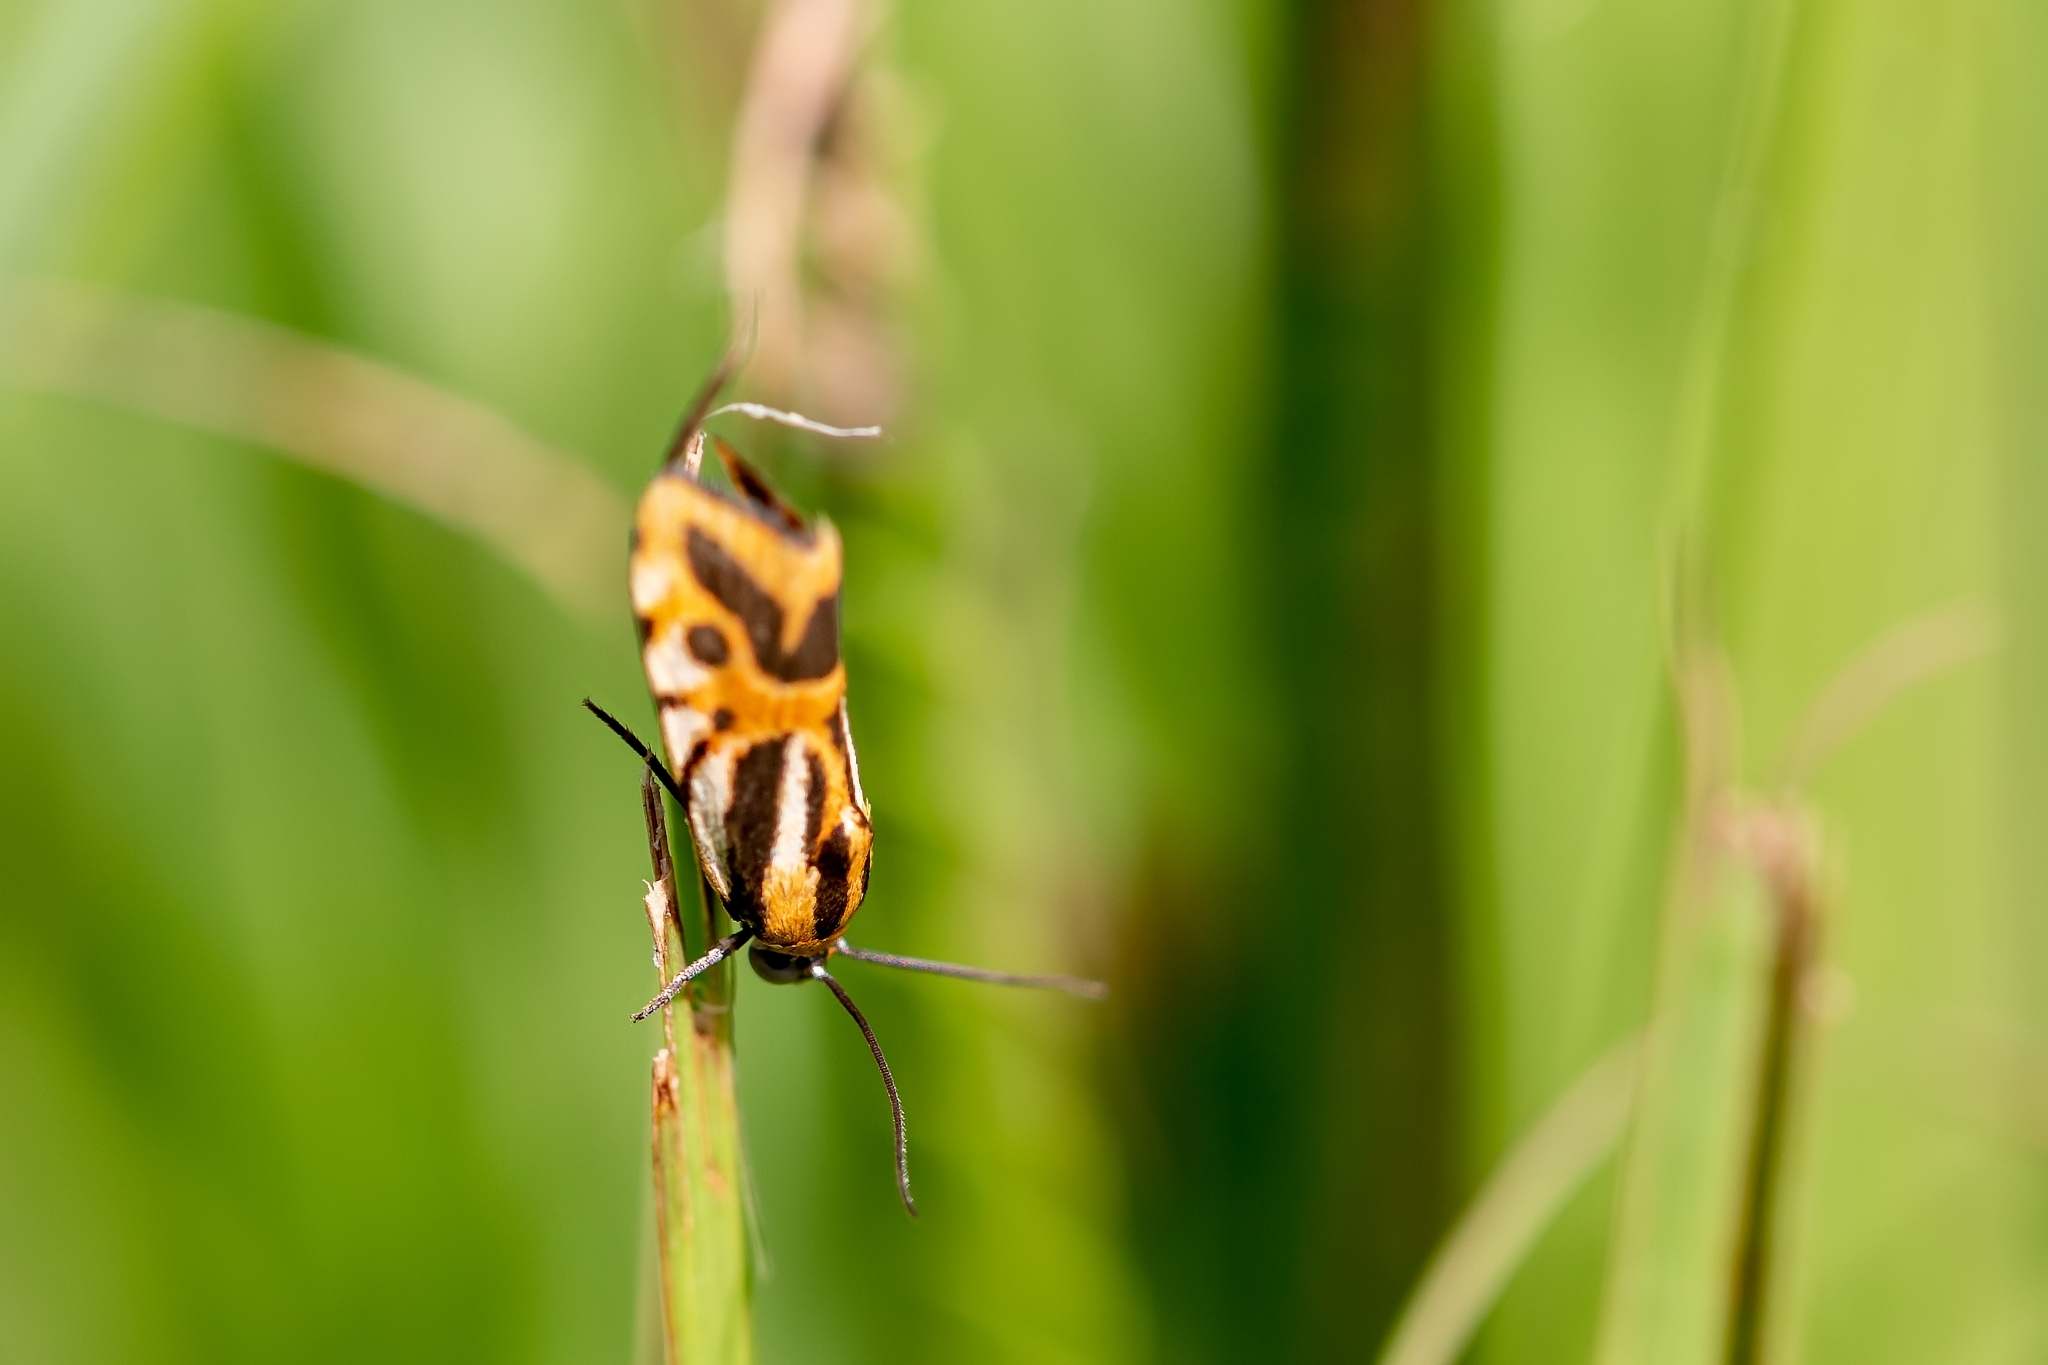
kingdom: Animalia
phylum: Arthropoda
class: Insecta
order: Lepidoptera
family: Noctuidae
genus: Acontia
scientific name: Acontia onagrus
